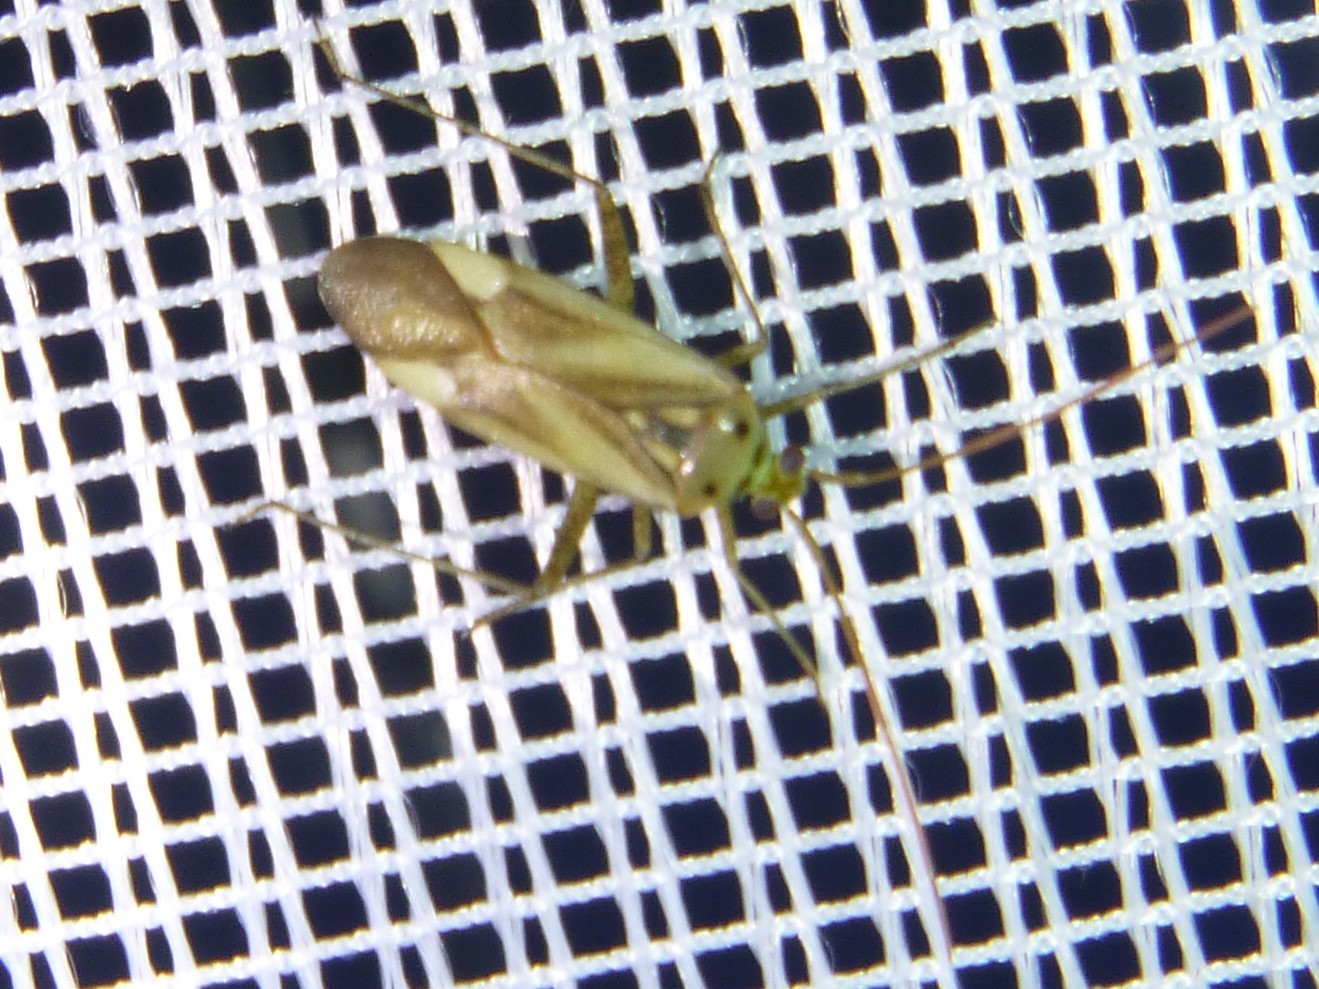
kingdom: Animalia
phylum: Arthropoda
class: Insecta
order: Hemiptera
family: Miridae
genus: Adelphocoris
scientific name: Adelphocoris lineolatus
